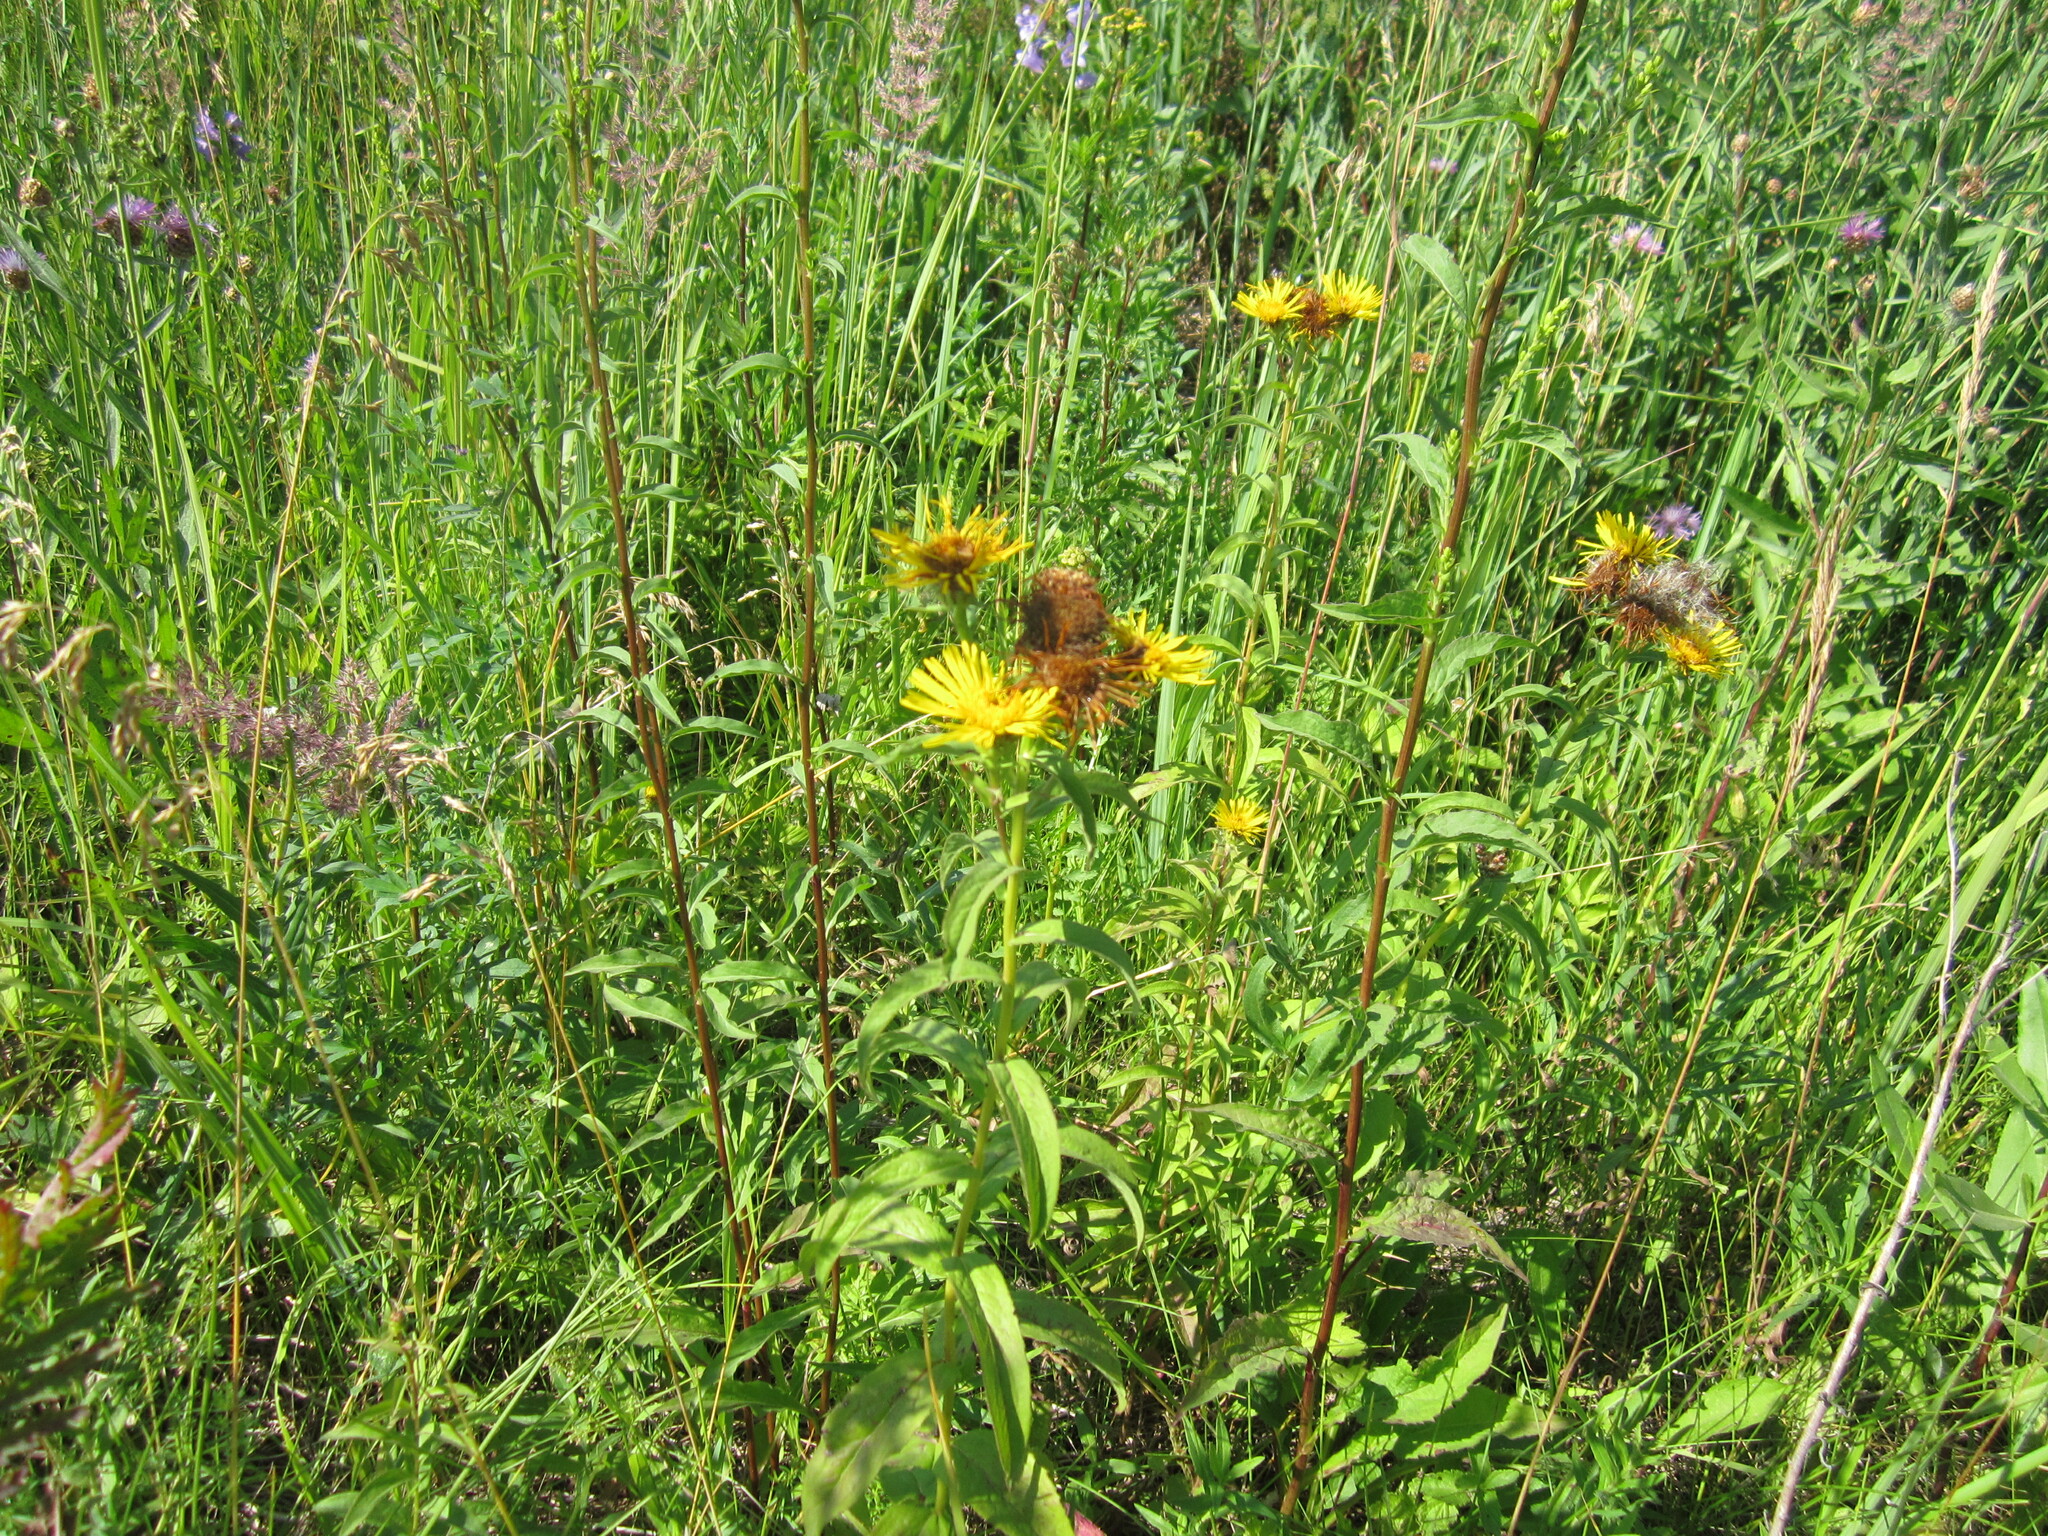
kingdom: Plantae
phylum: Tracheophyta
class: Magnoliopsida
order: Asterales
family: Asteraceae
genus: Pentanema
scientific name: Pentanema salicinum
